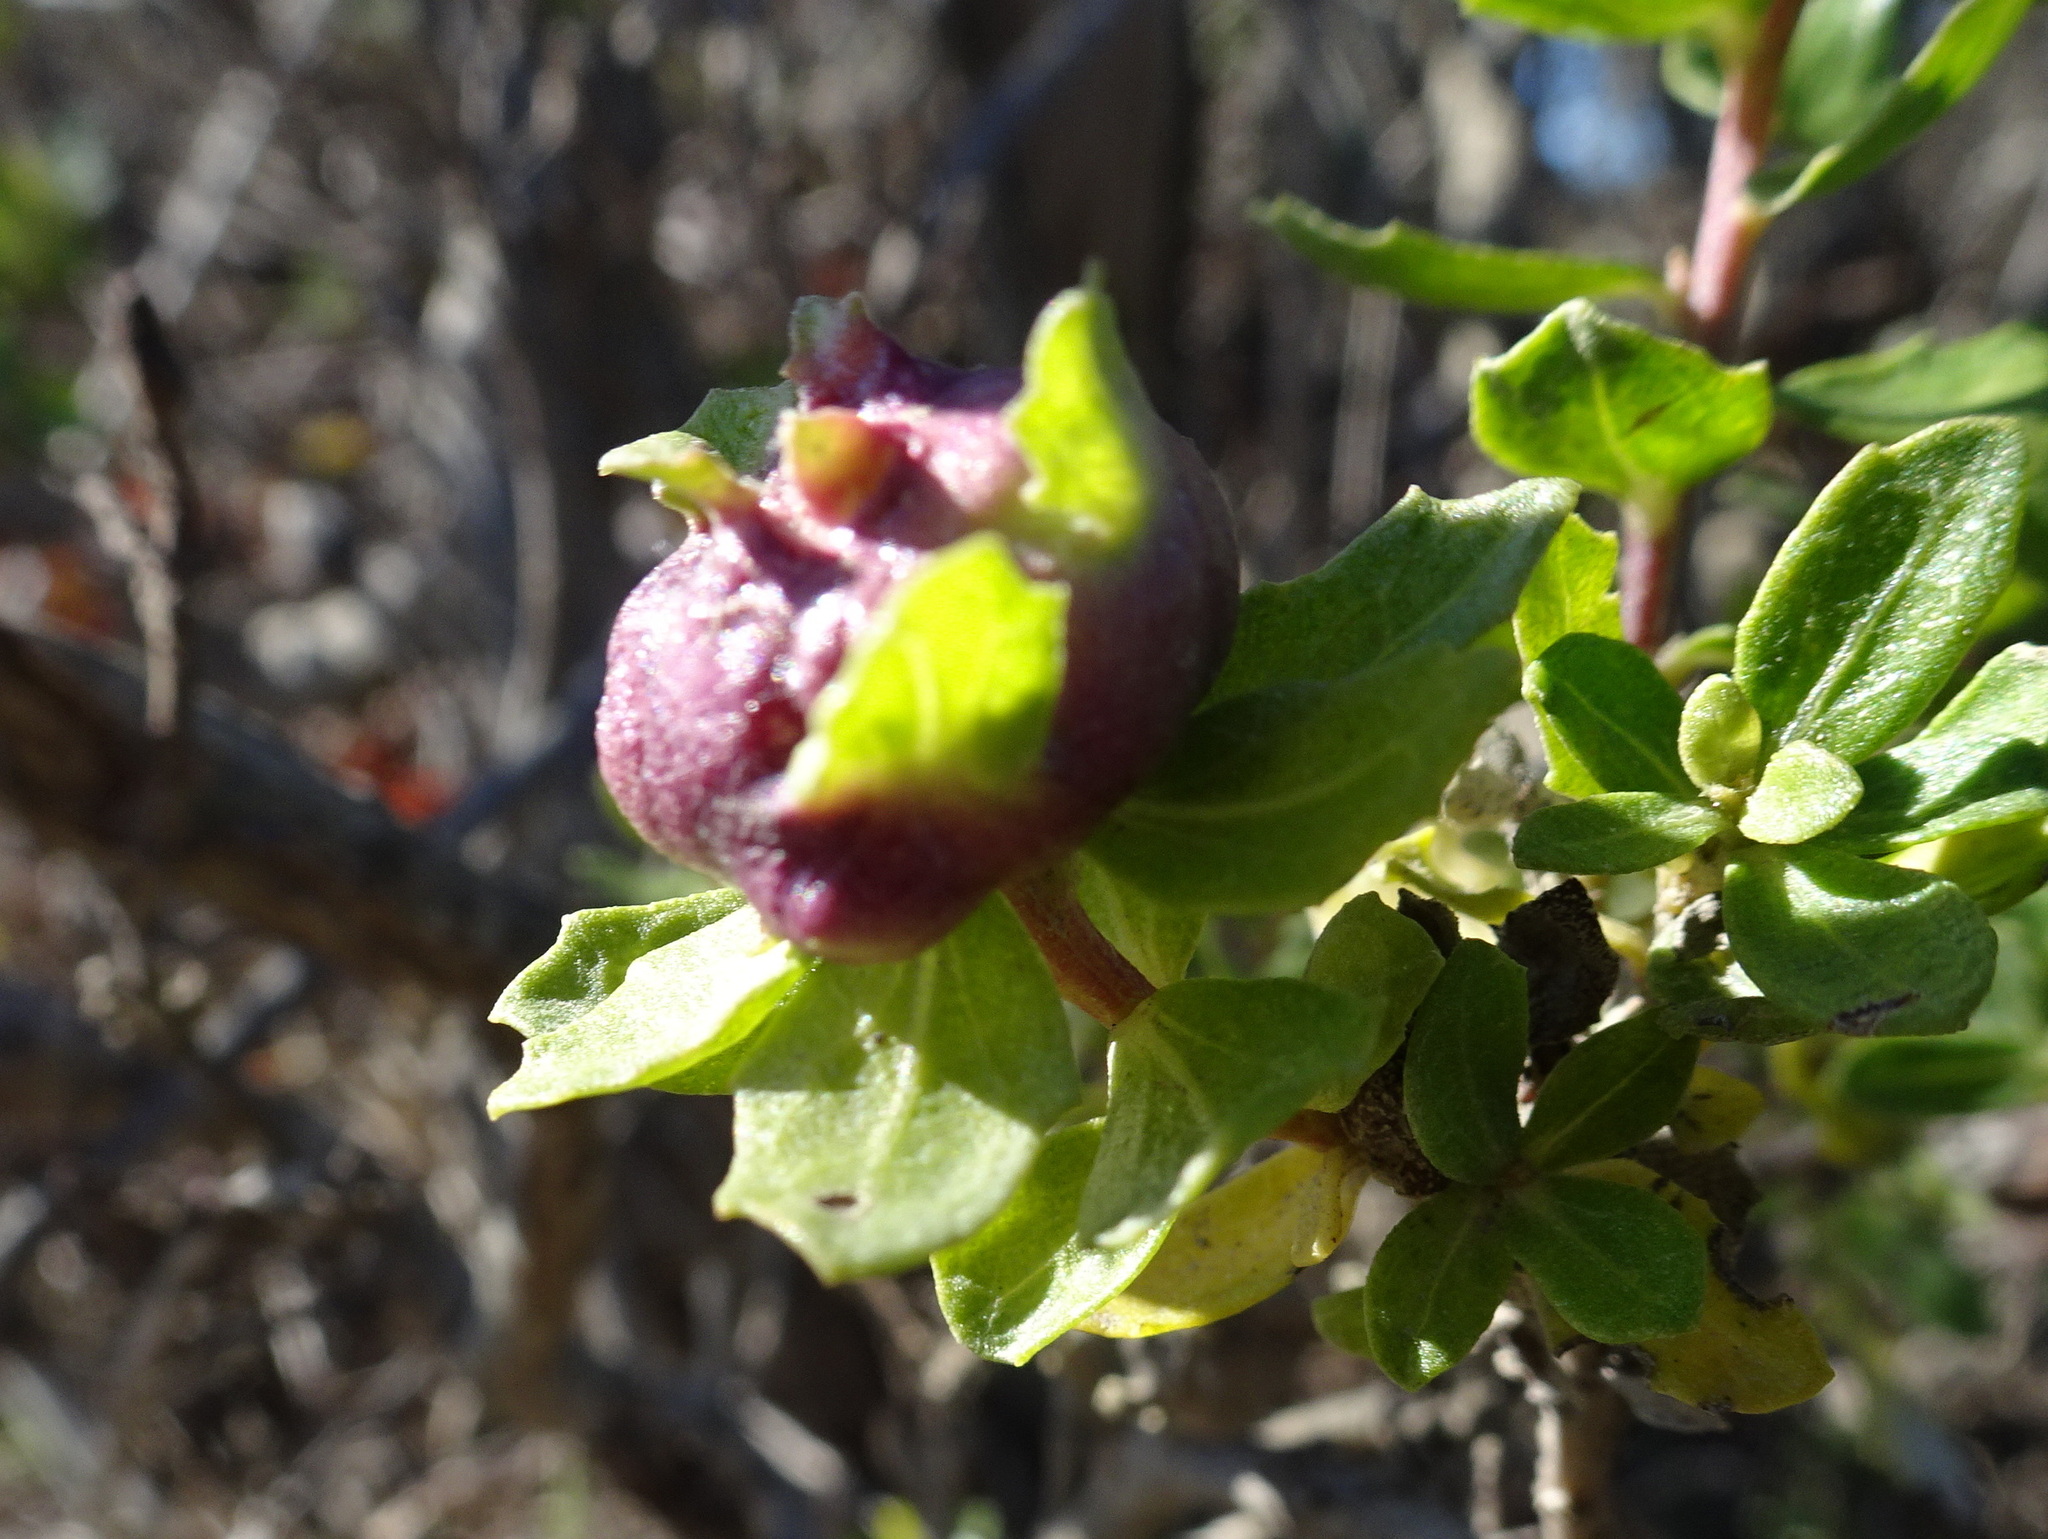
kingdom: Animalia
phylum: Arthropoda
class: Insecta
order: Diptera
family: Cecidomyiidae
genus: Rhopalomyia
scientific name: Rhopalomyia californica
